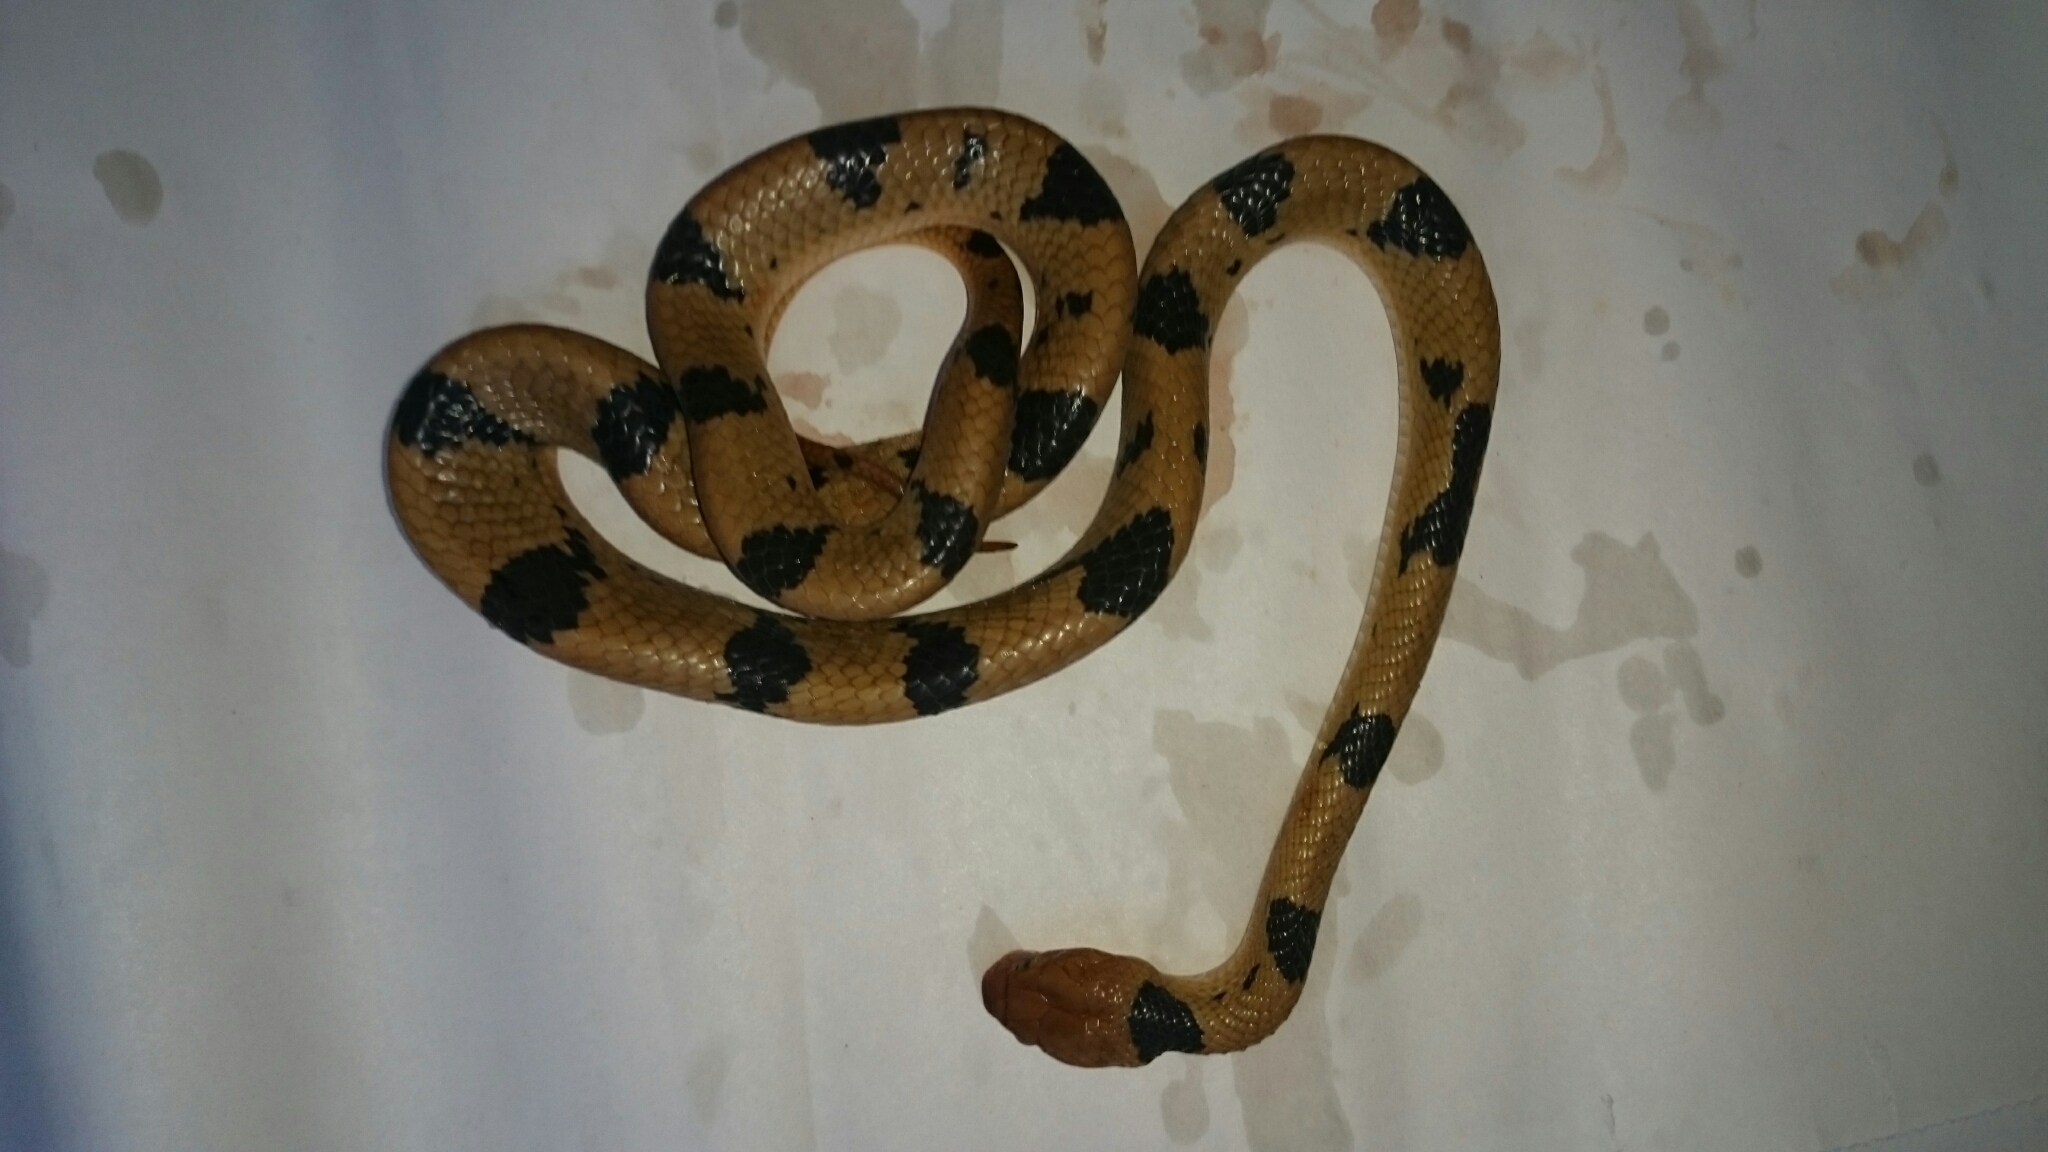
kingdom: Animalia
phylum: Chordata
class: Squamata
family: Colubridae
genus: Telescopus
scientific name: Telescopus semiannulatus
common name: Common tiger snake
